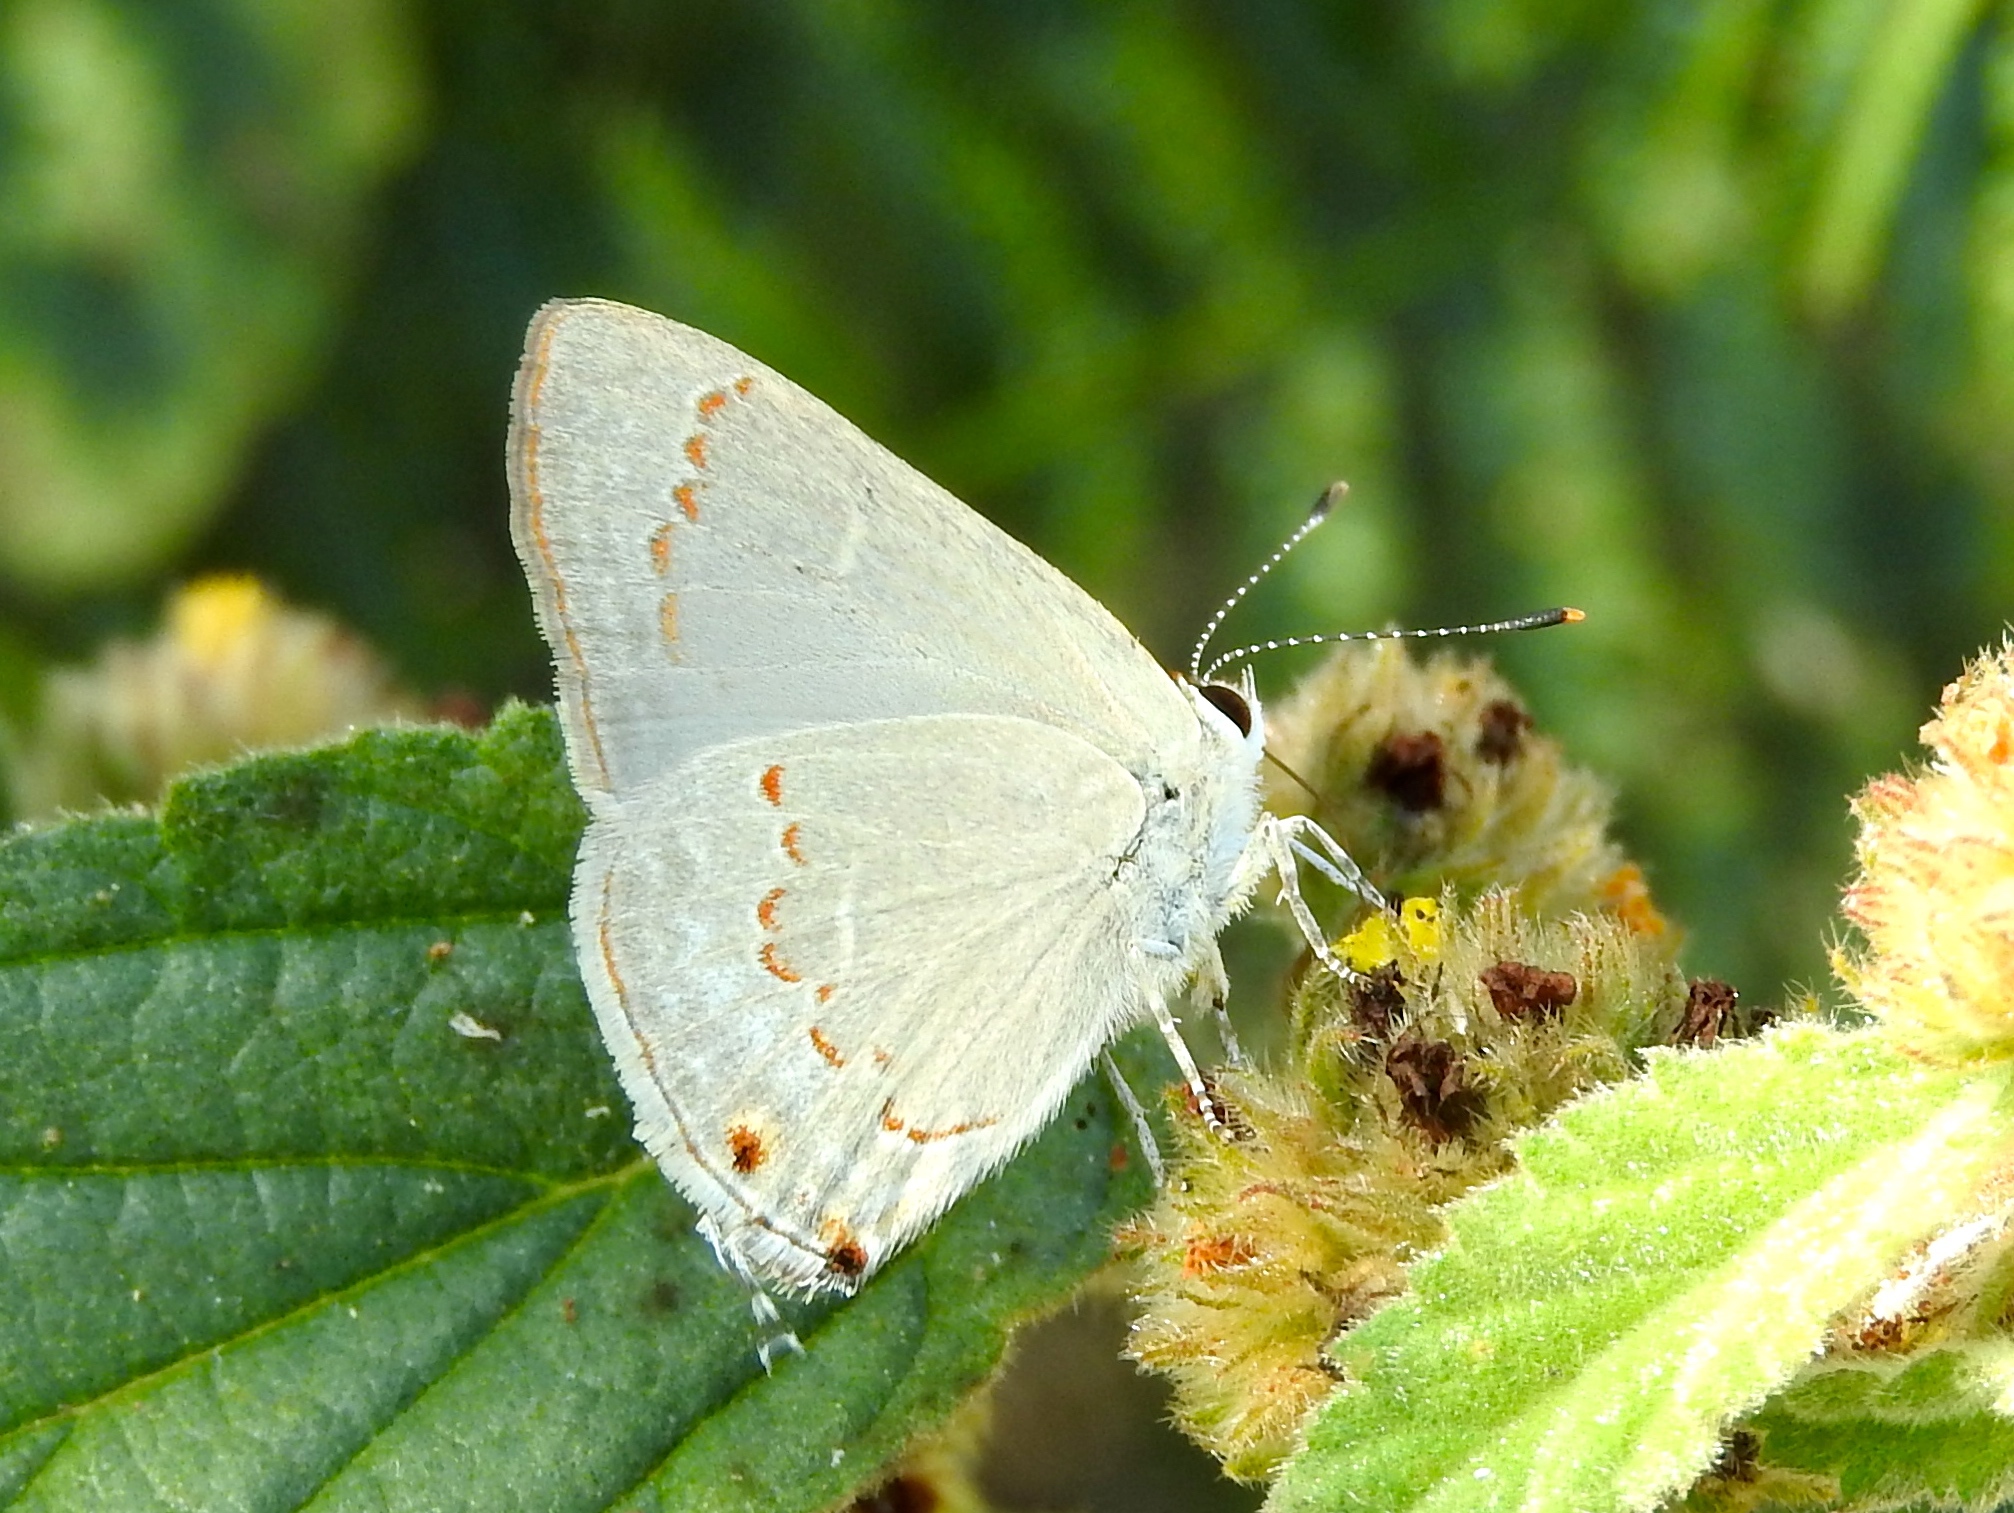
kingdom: Animalia
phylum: Arthropoda
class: Insecta
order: Lepidoptera
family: Lycaenidae
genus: Thecla
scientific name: Thecla rufofusca
